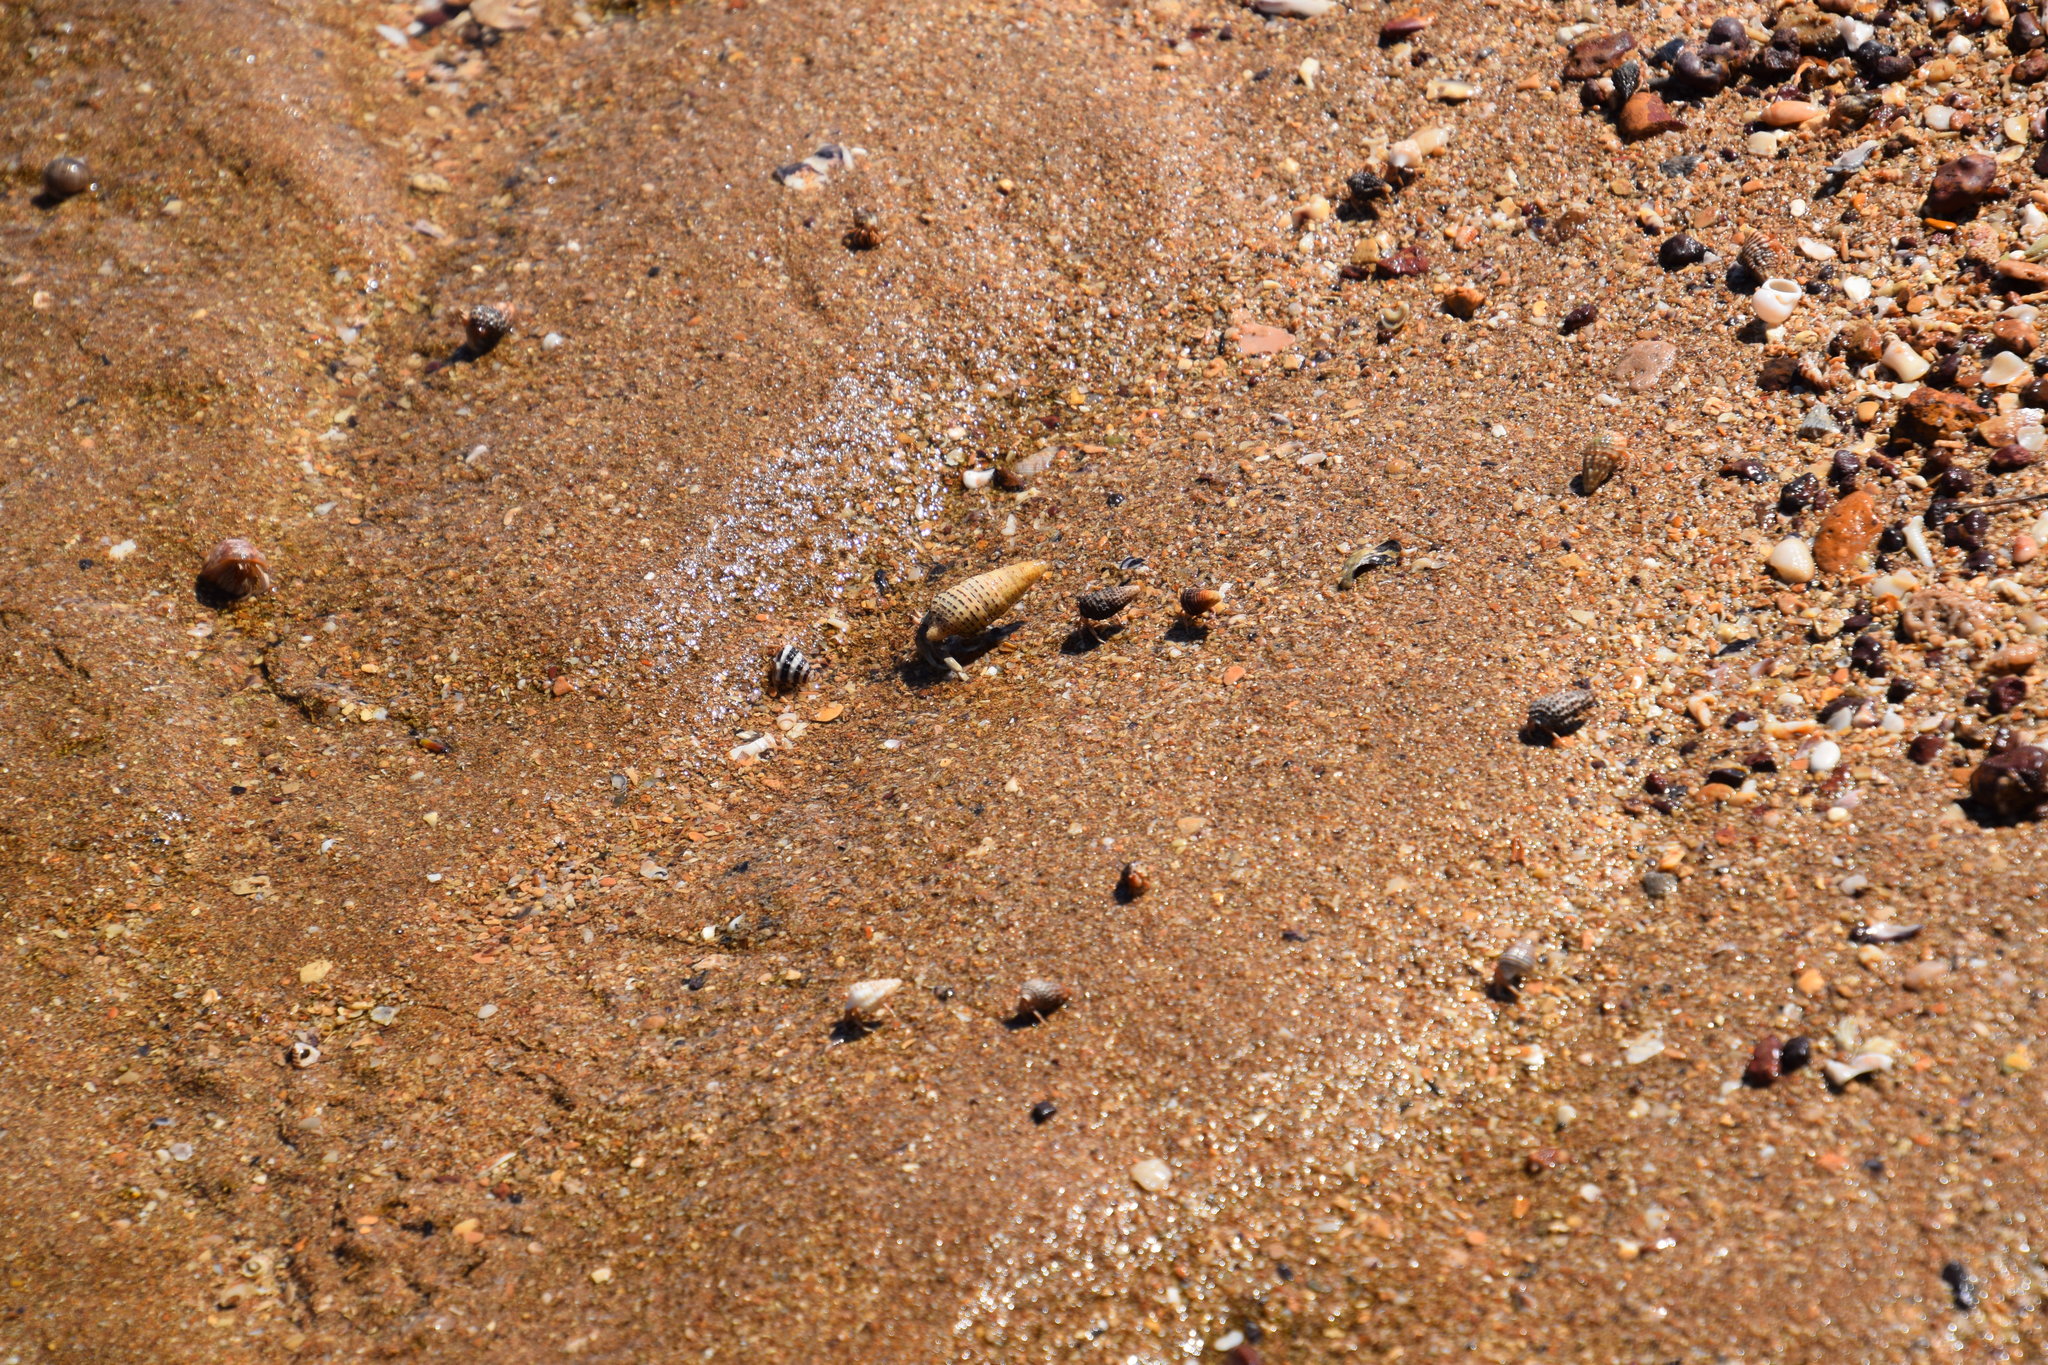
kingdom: Animalia
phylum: Arthropoda
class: Malacostraca
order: Decapoda
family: Coenobitidae
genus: Coenobita
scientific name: Coenobita variabilis
